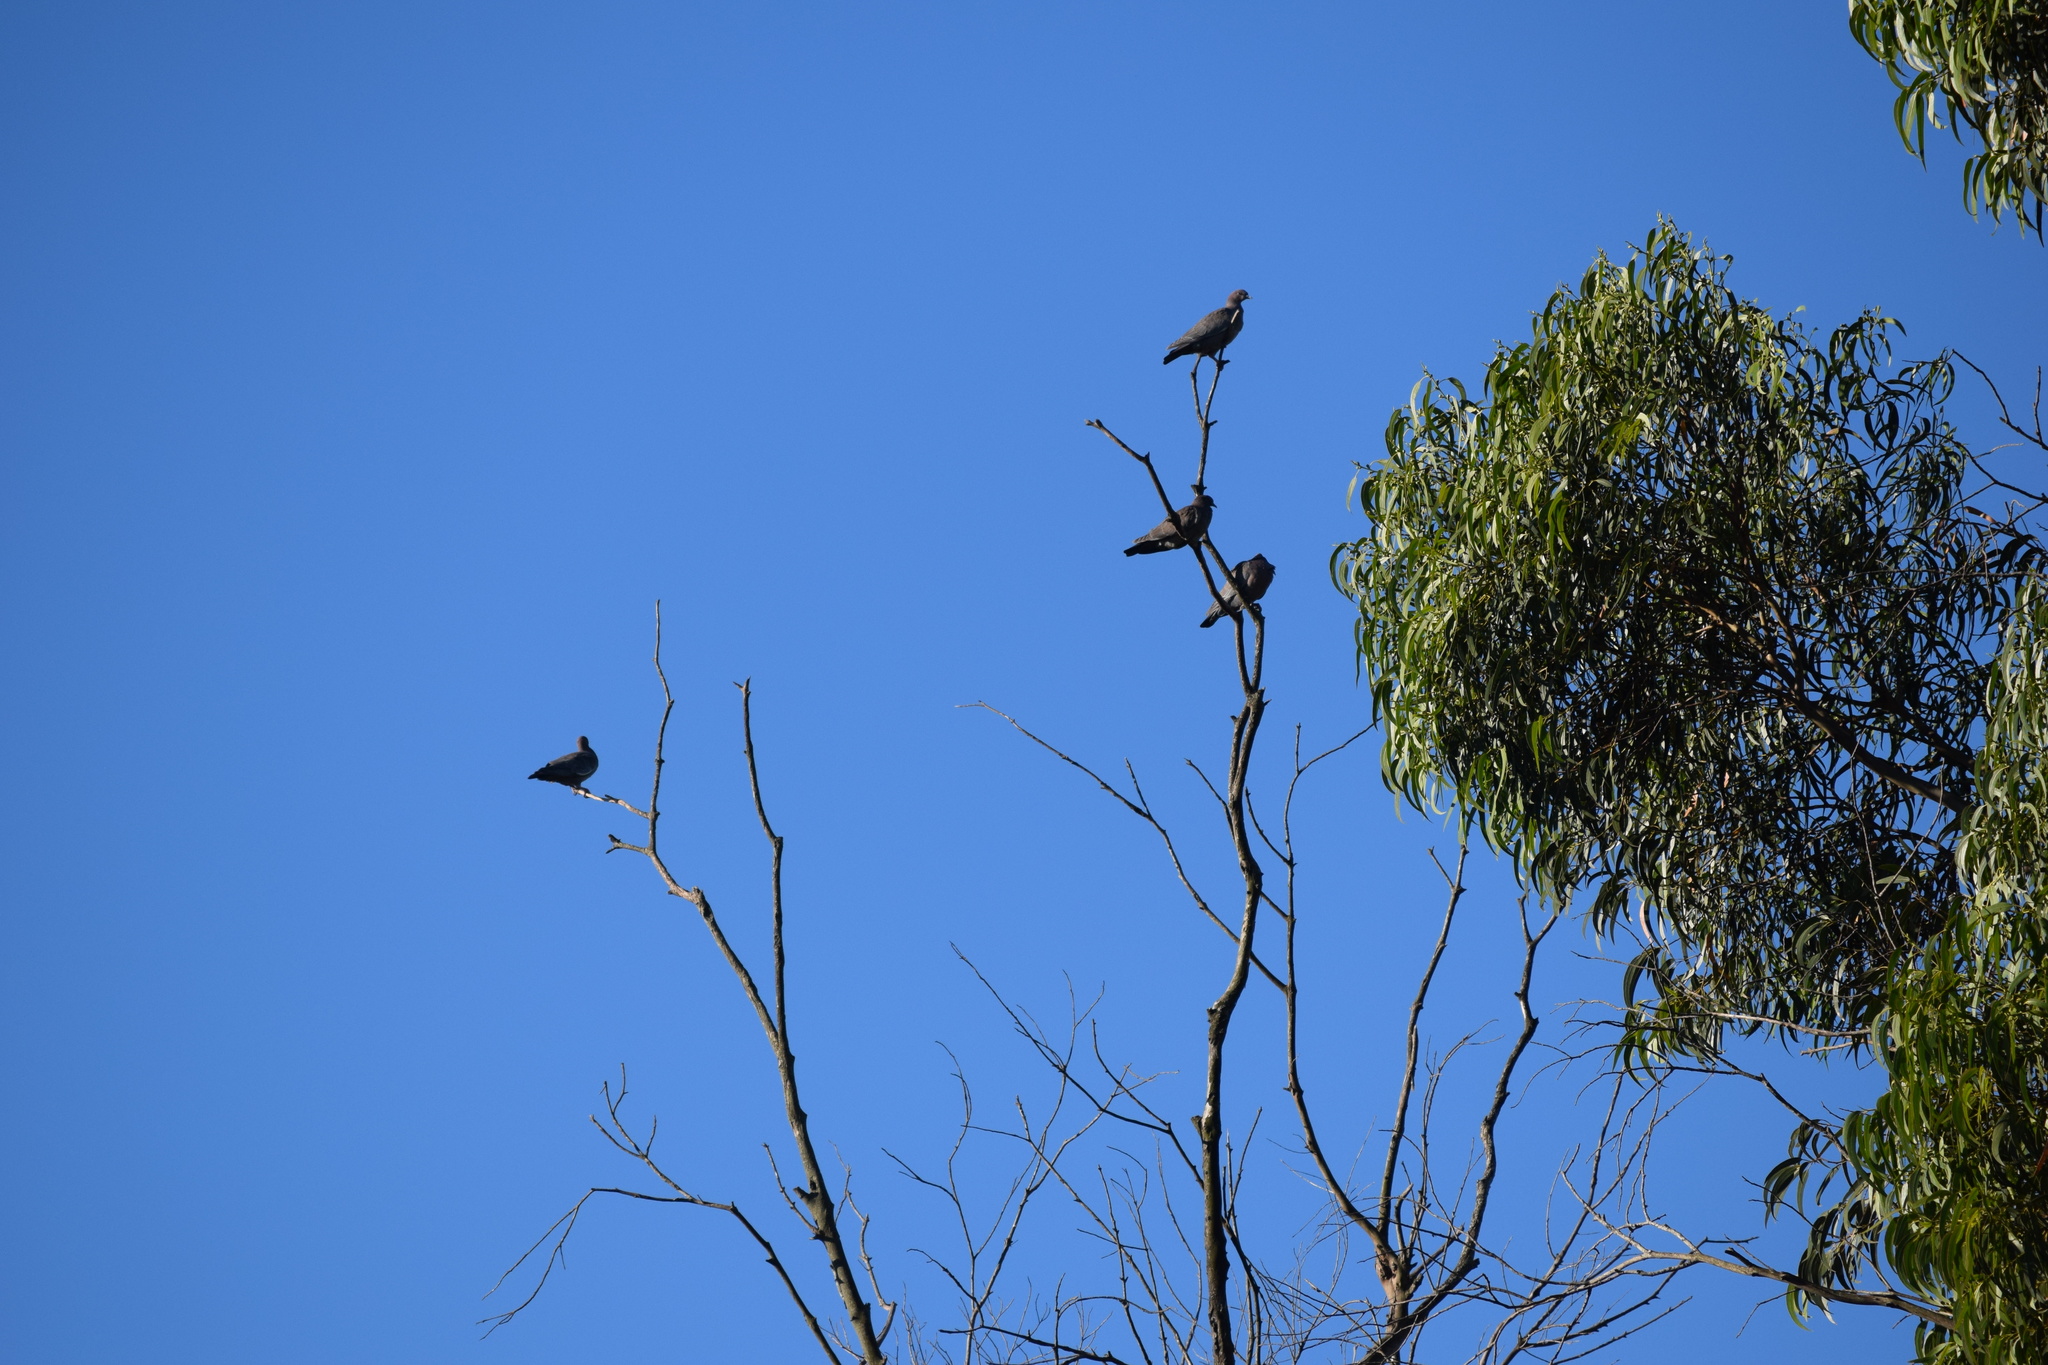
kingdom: Animalia
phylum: Chordata
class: Aves
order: Columbiformes
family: Columbidae
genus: Patagioenas
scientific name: Patagioenas picazuro
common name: Picazuro pigeon
